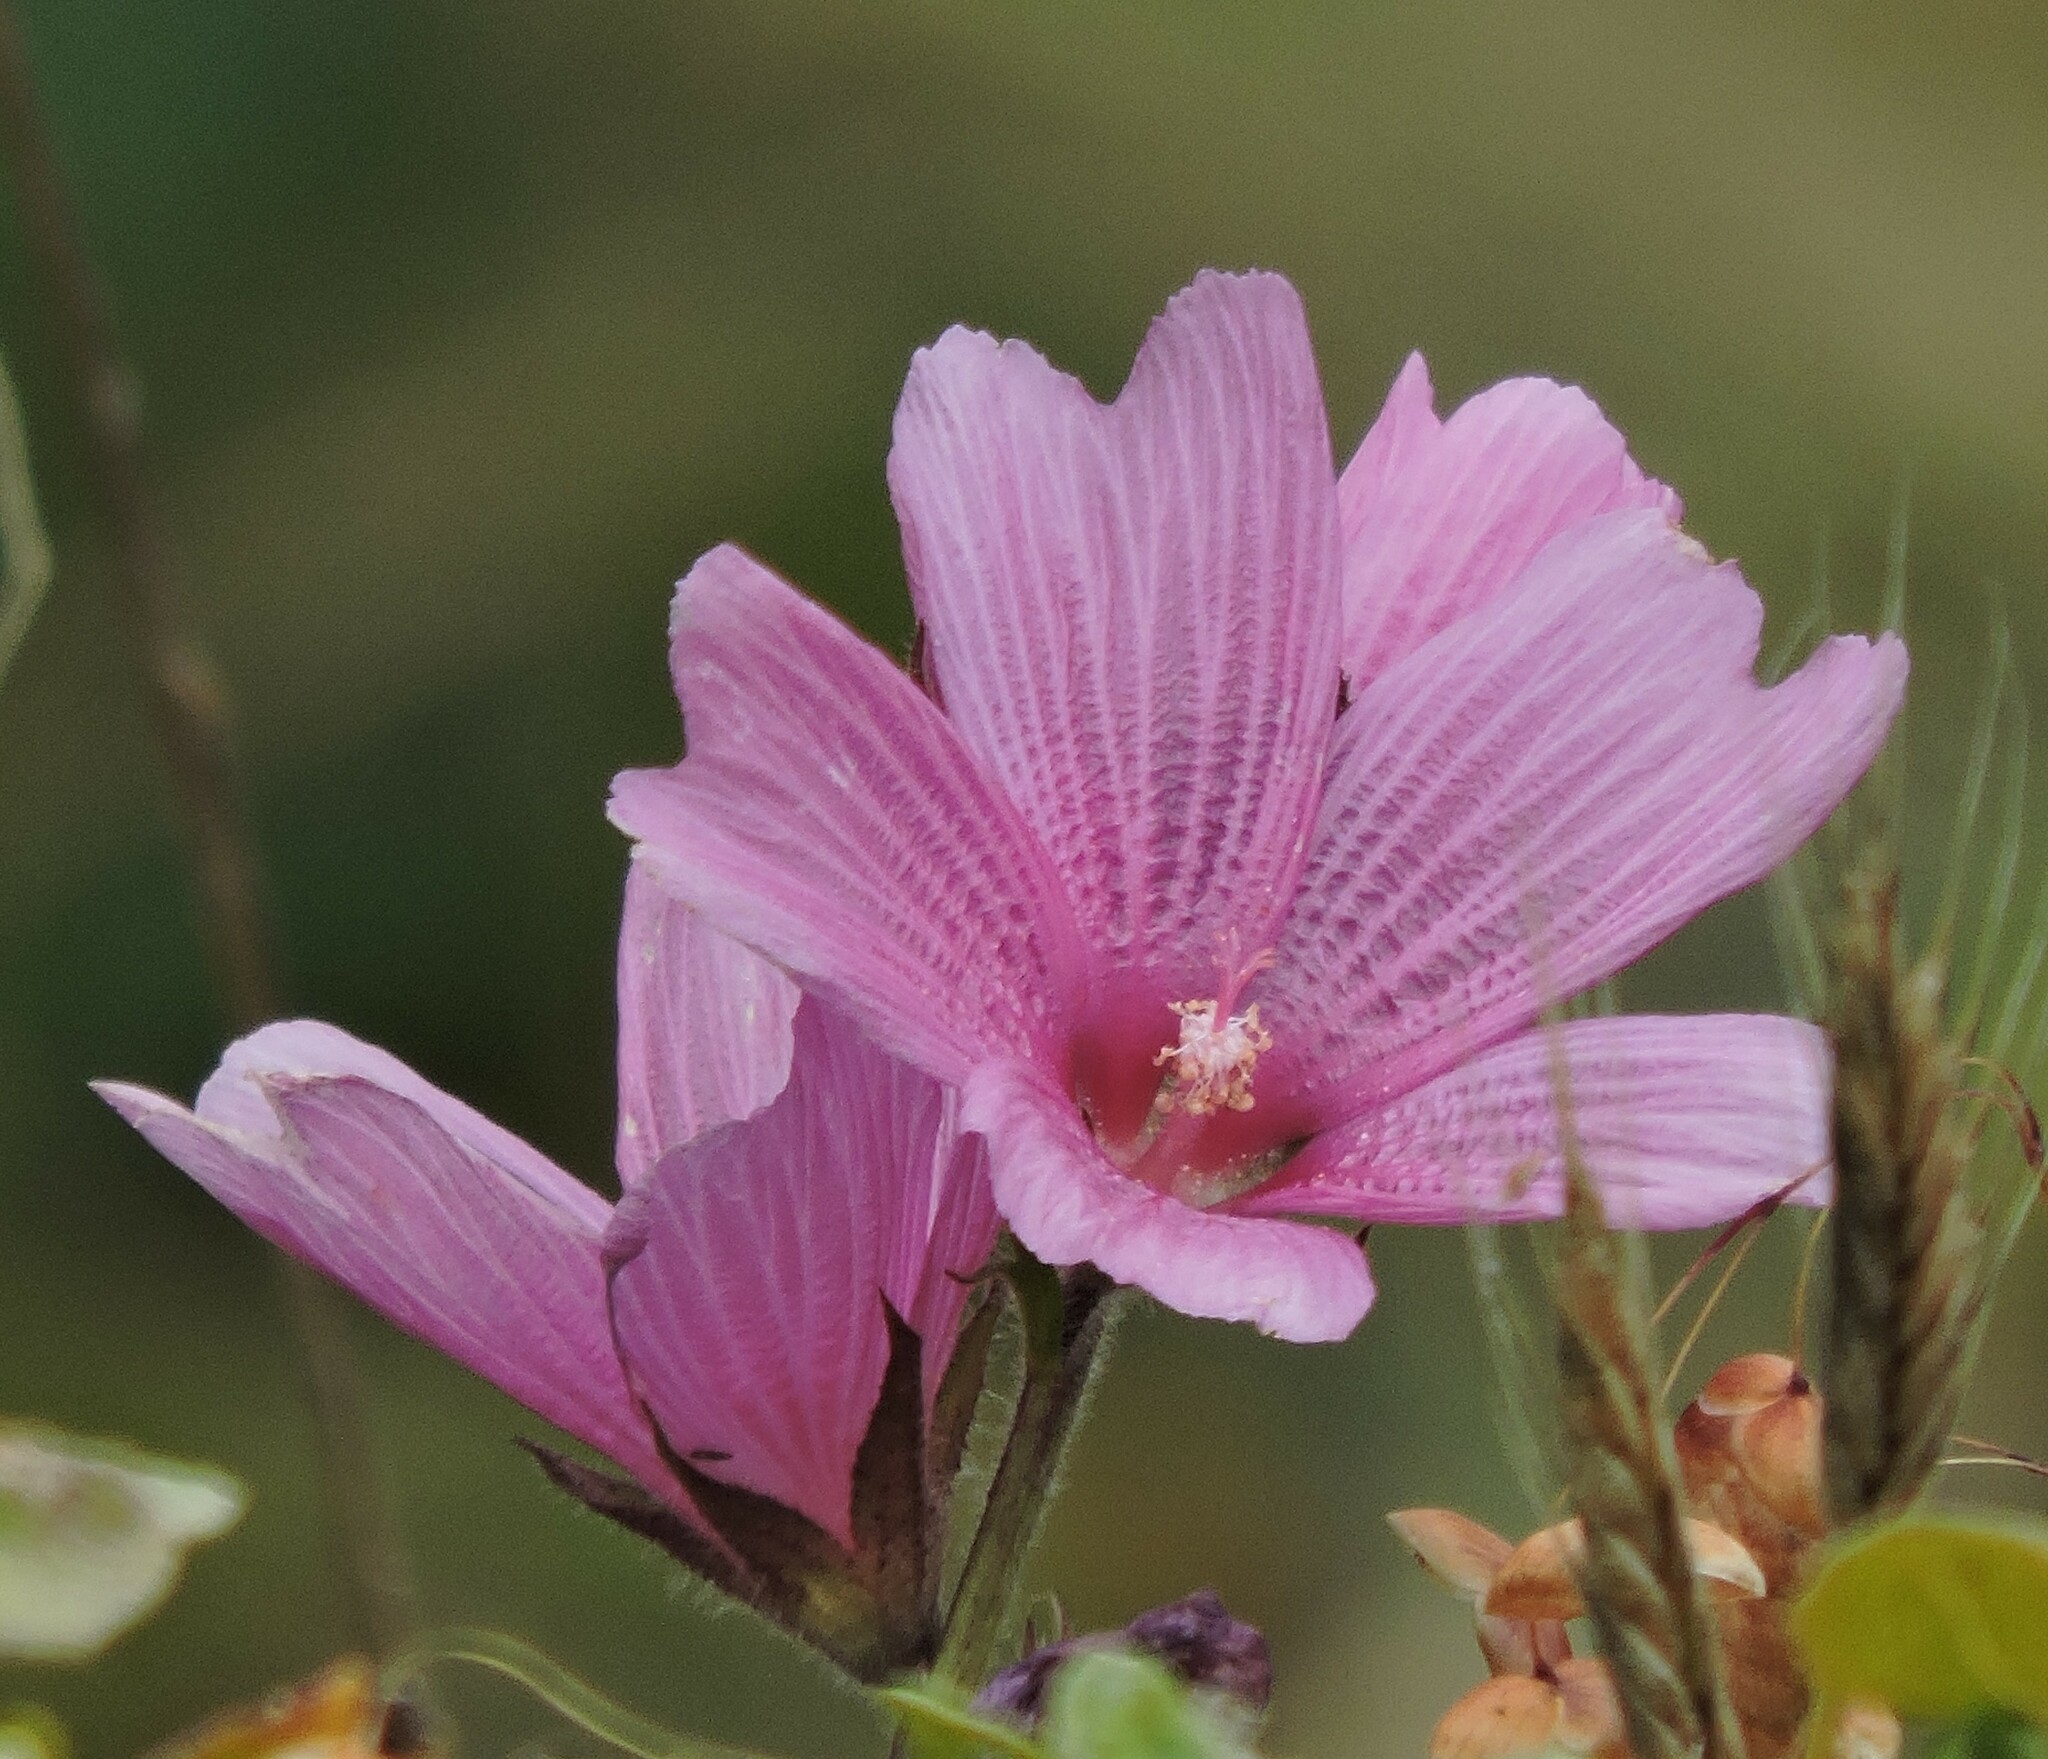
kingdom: Plantae
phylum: Tracheophyta
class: Magnoliopsida
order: Malvales
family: Malvaceae
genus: Sidalcea
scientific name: Sidalcea malviflora
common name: Greek mallow
